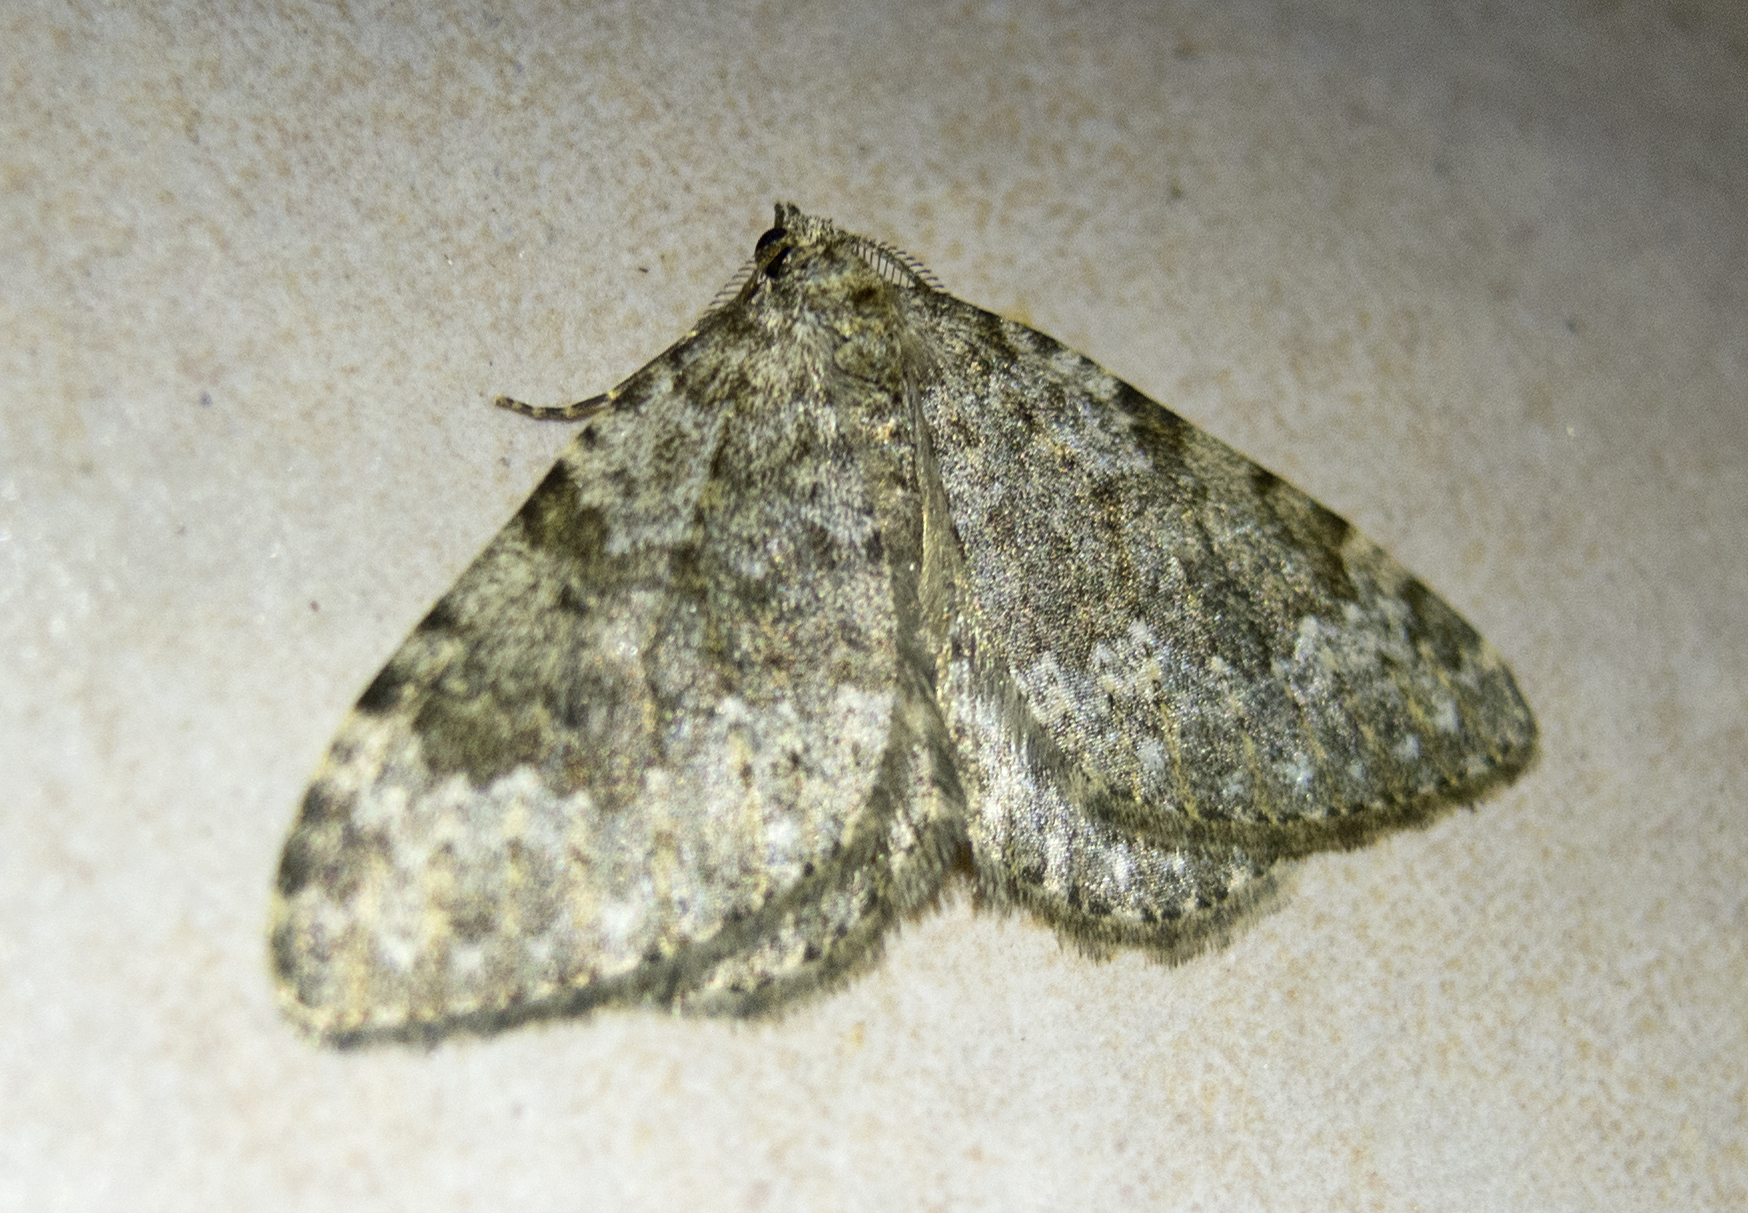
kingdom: Animalia
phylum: Arthropoda
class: Insecta
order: Lepidoptera
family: Geometridae
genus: Nebula
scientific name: Nebula salicata
